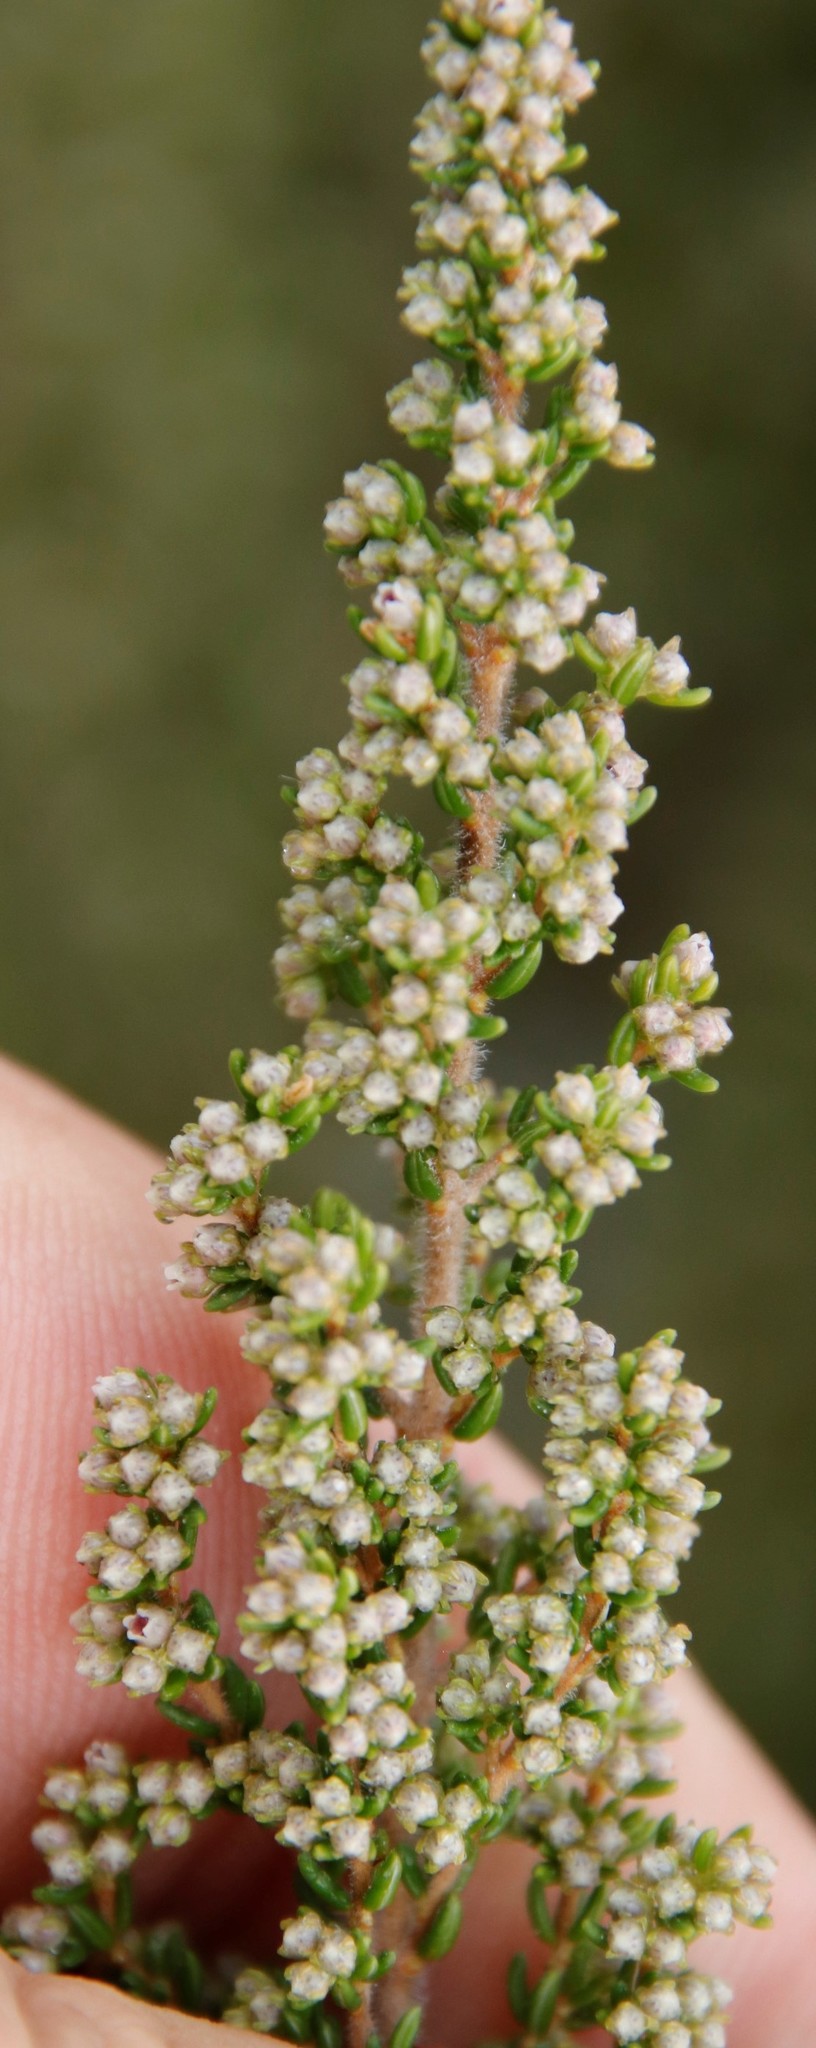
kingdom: Plantae
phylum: Tracheophyta
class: Magnoliopsida
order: Ericales
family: Ericaceae
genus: Erica
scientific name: Erica hispidula
